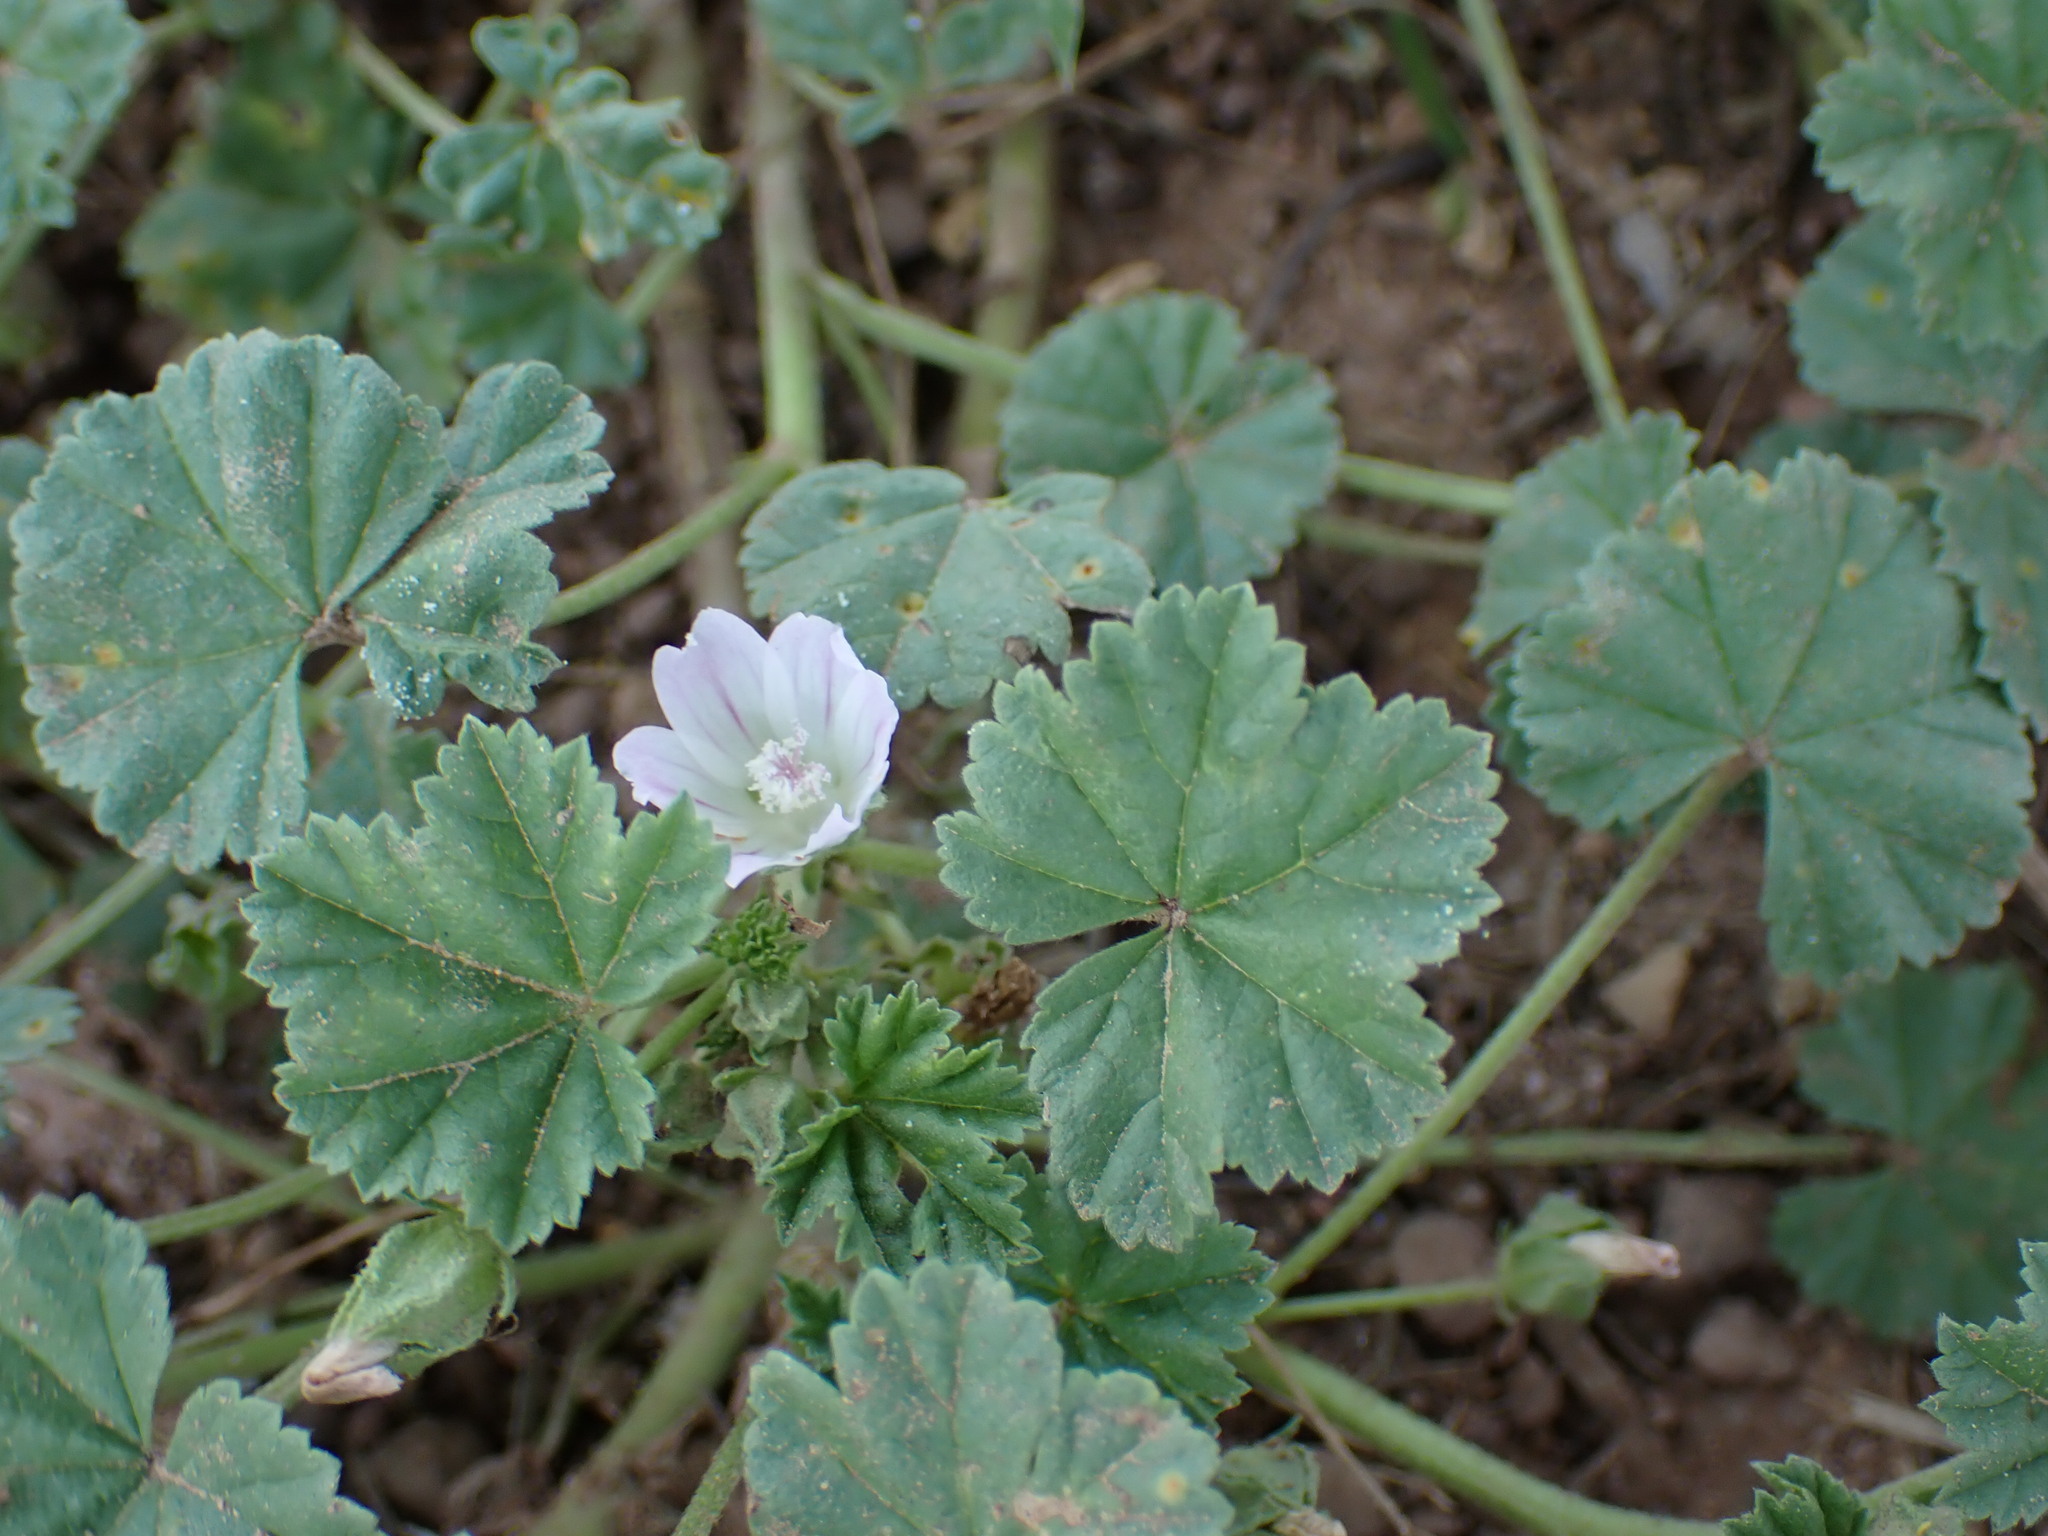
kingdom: Plantae
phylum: Tracheophyta
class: Magnoliopsida
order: Malvales
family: Malvaceae
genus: Malva
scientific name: Malva neglecta
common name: Common mallow
